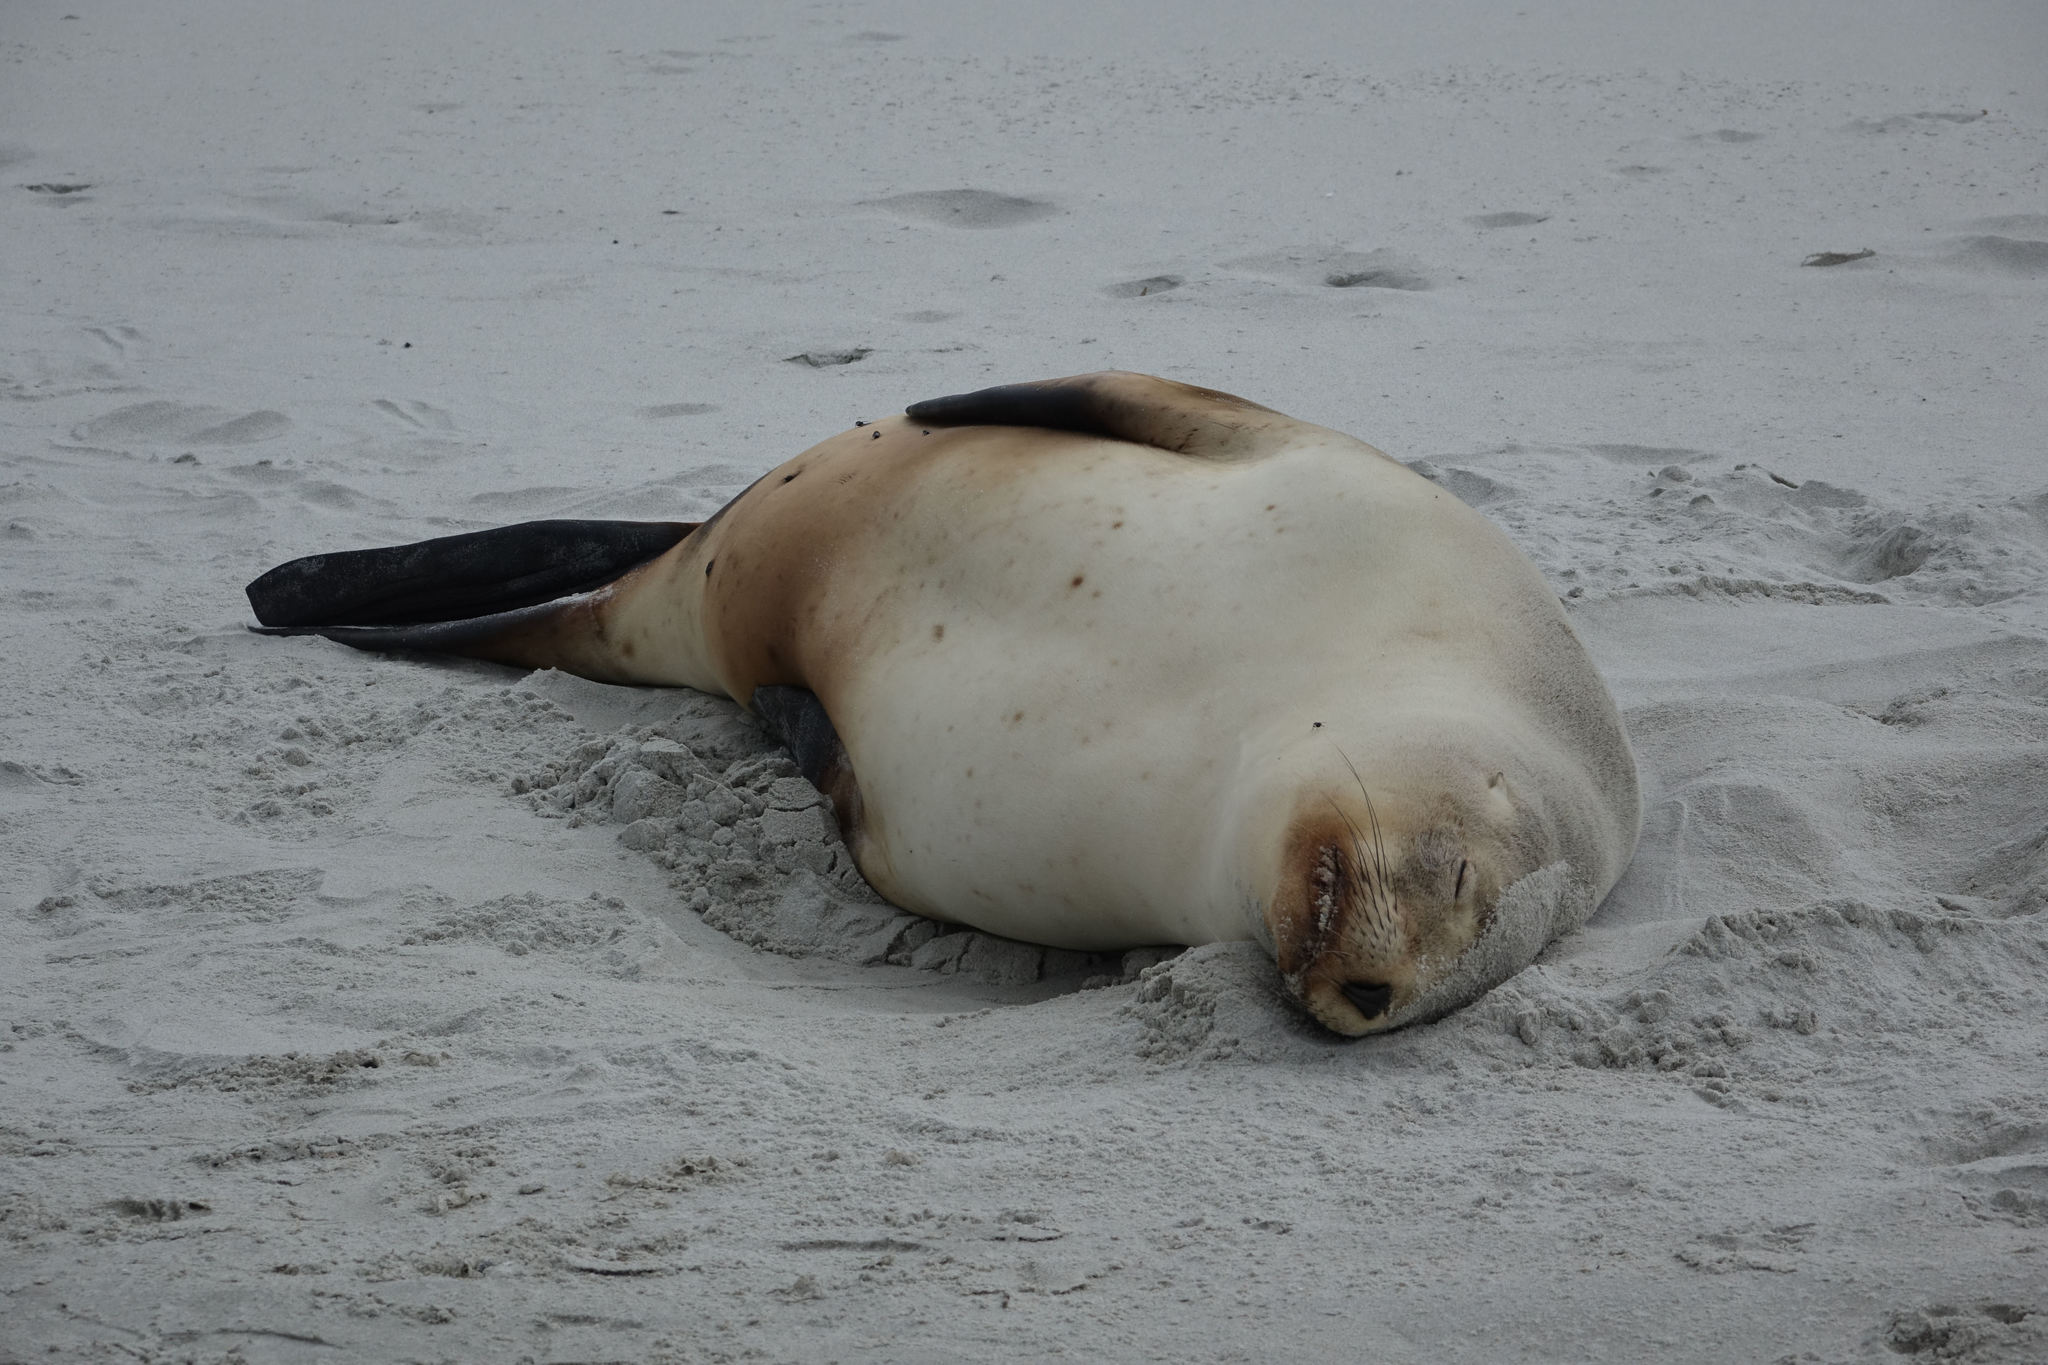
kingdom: Animalia
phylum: Chordata
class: Mammalia
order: Carnivora
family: Otariidae
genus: Phocarctos
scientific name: Phocarctos hookeri
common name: New zealand sea lion
